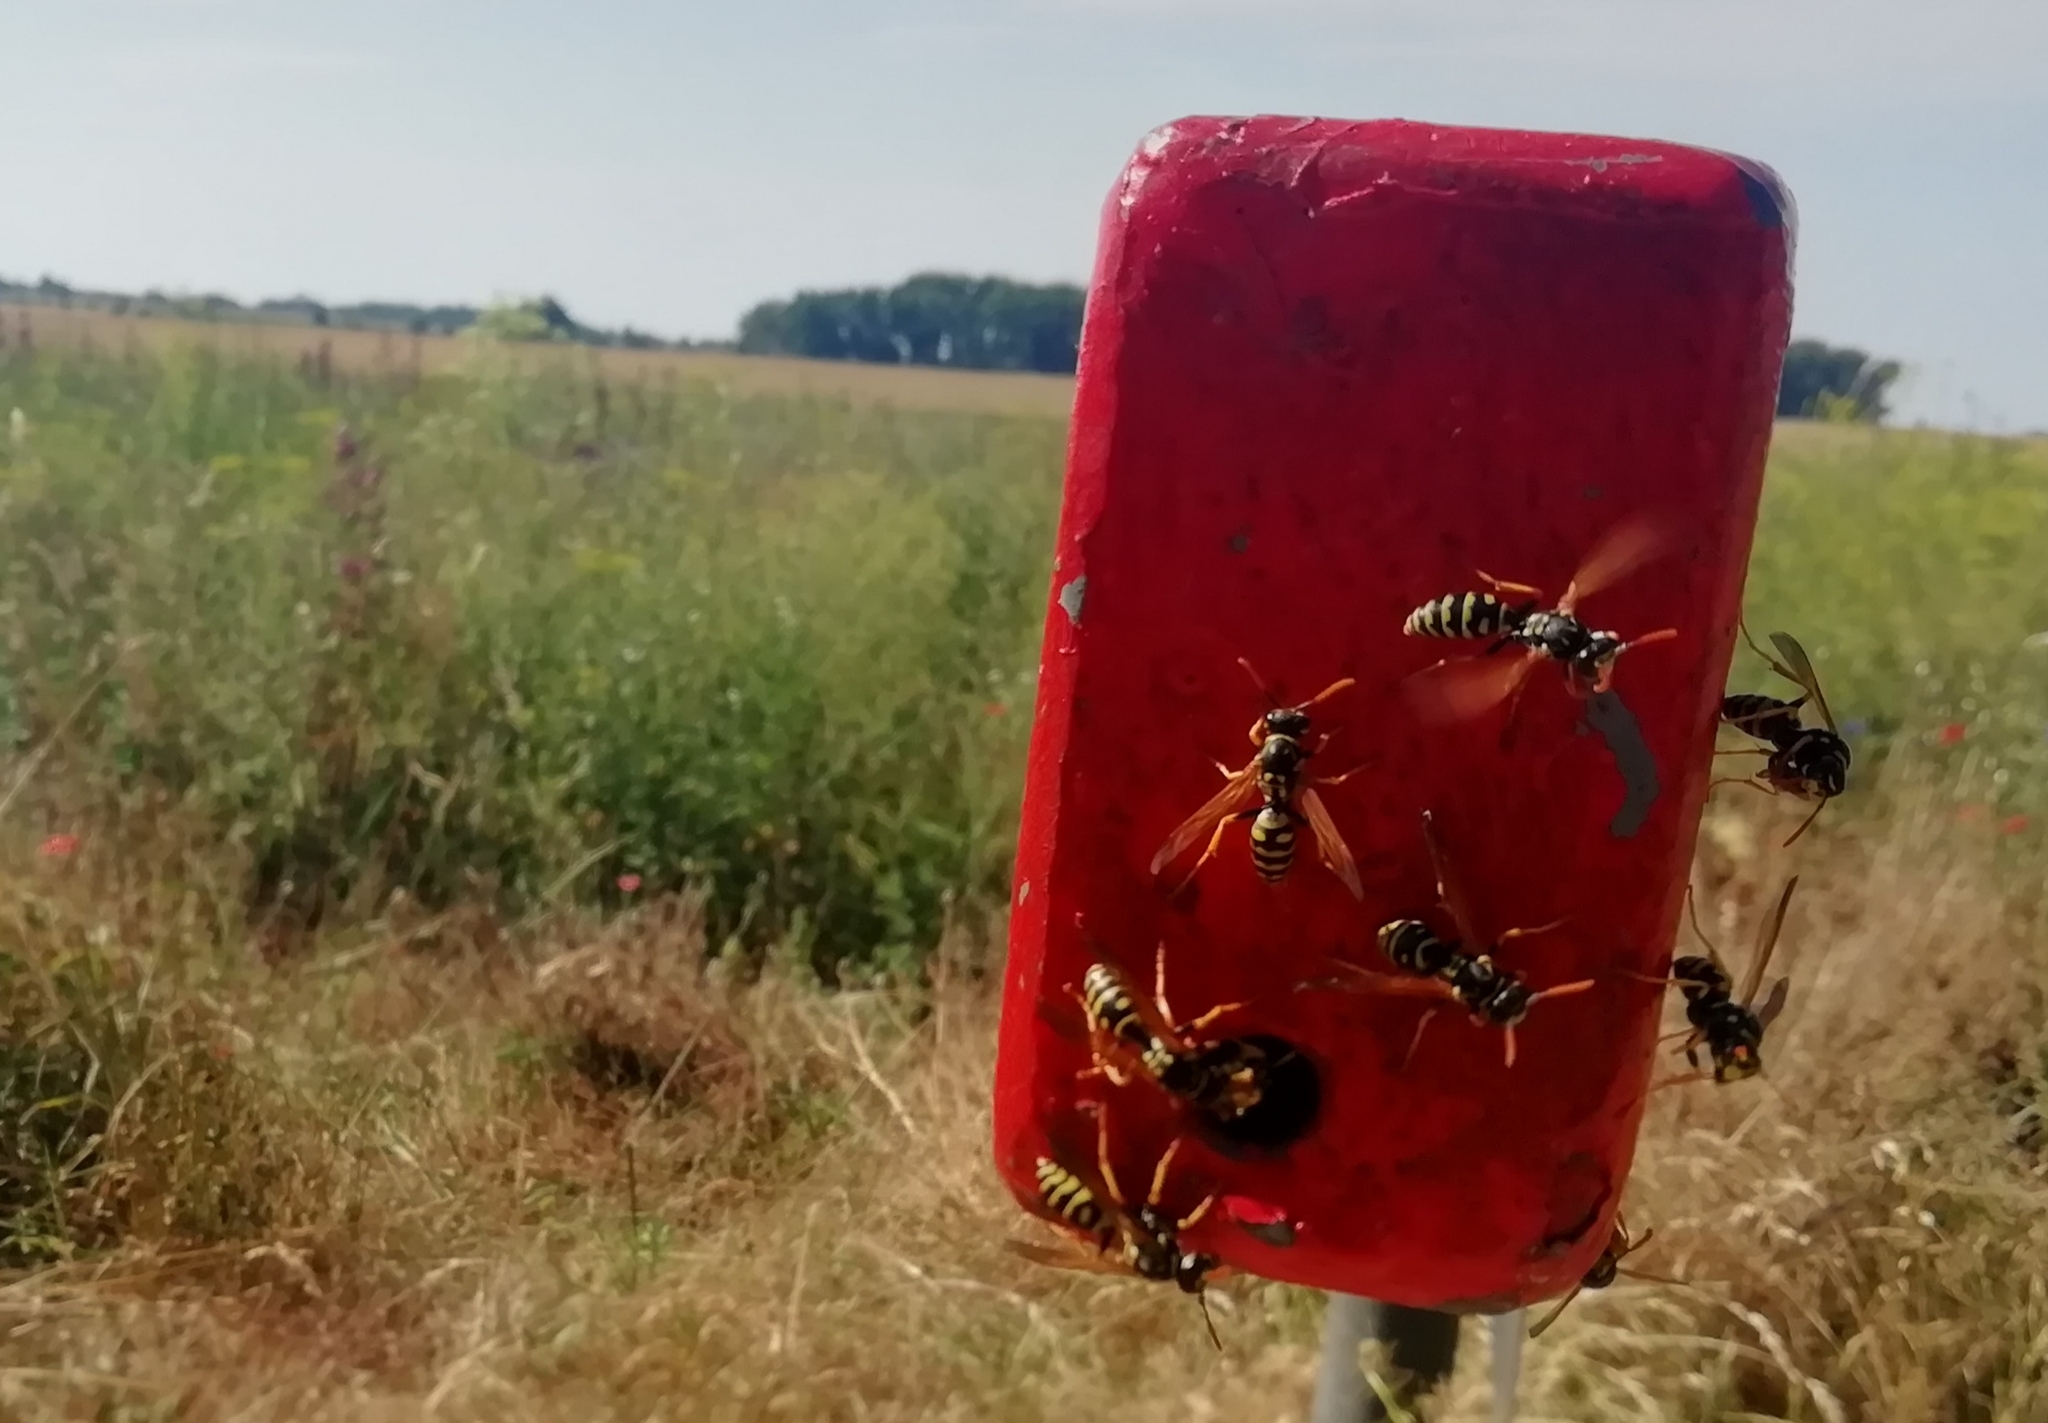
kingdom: Animalia
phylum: Arthropoda
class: Insecta
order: Hymenoptera
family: Eumenidae
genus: Polistes
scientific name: Polistes dominula
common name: Paper wasp
